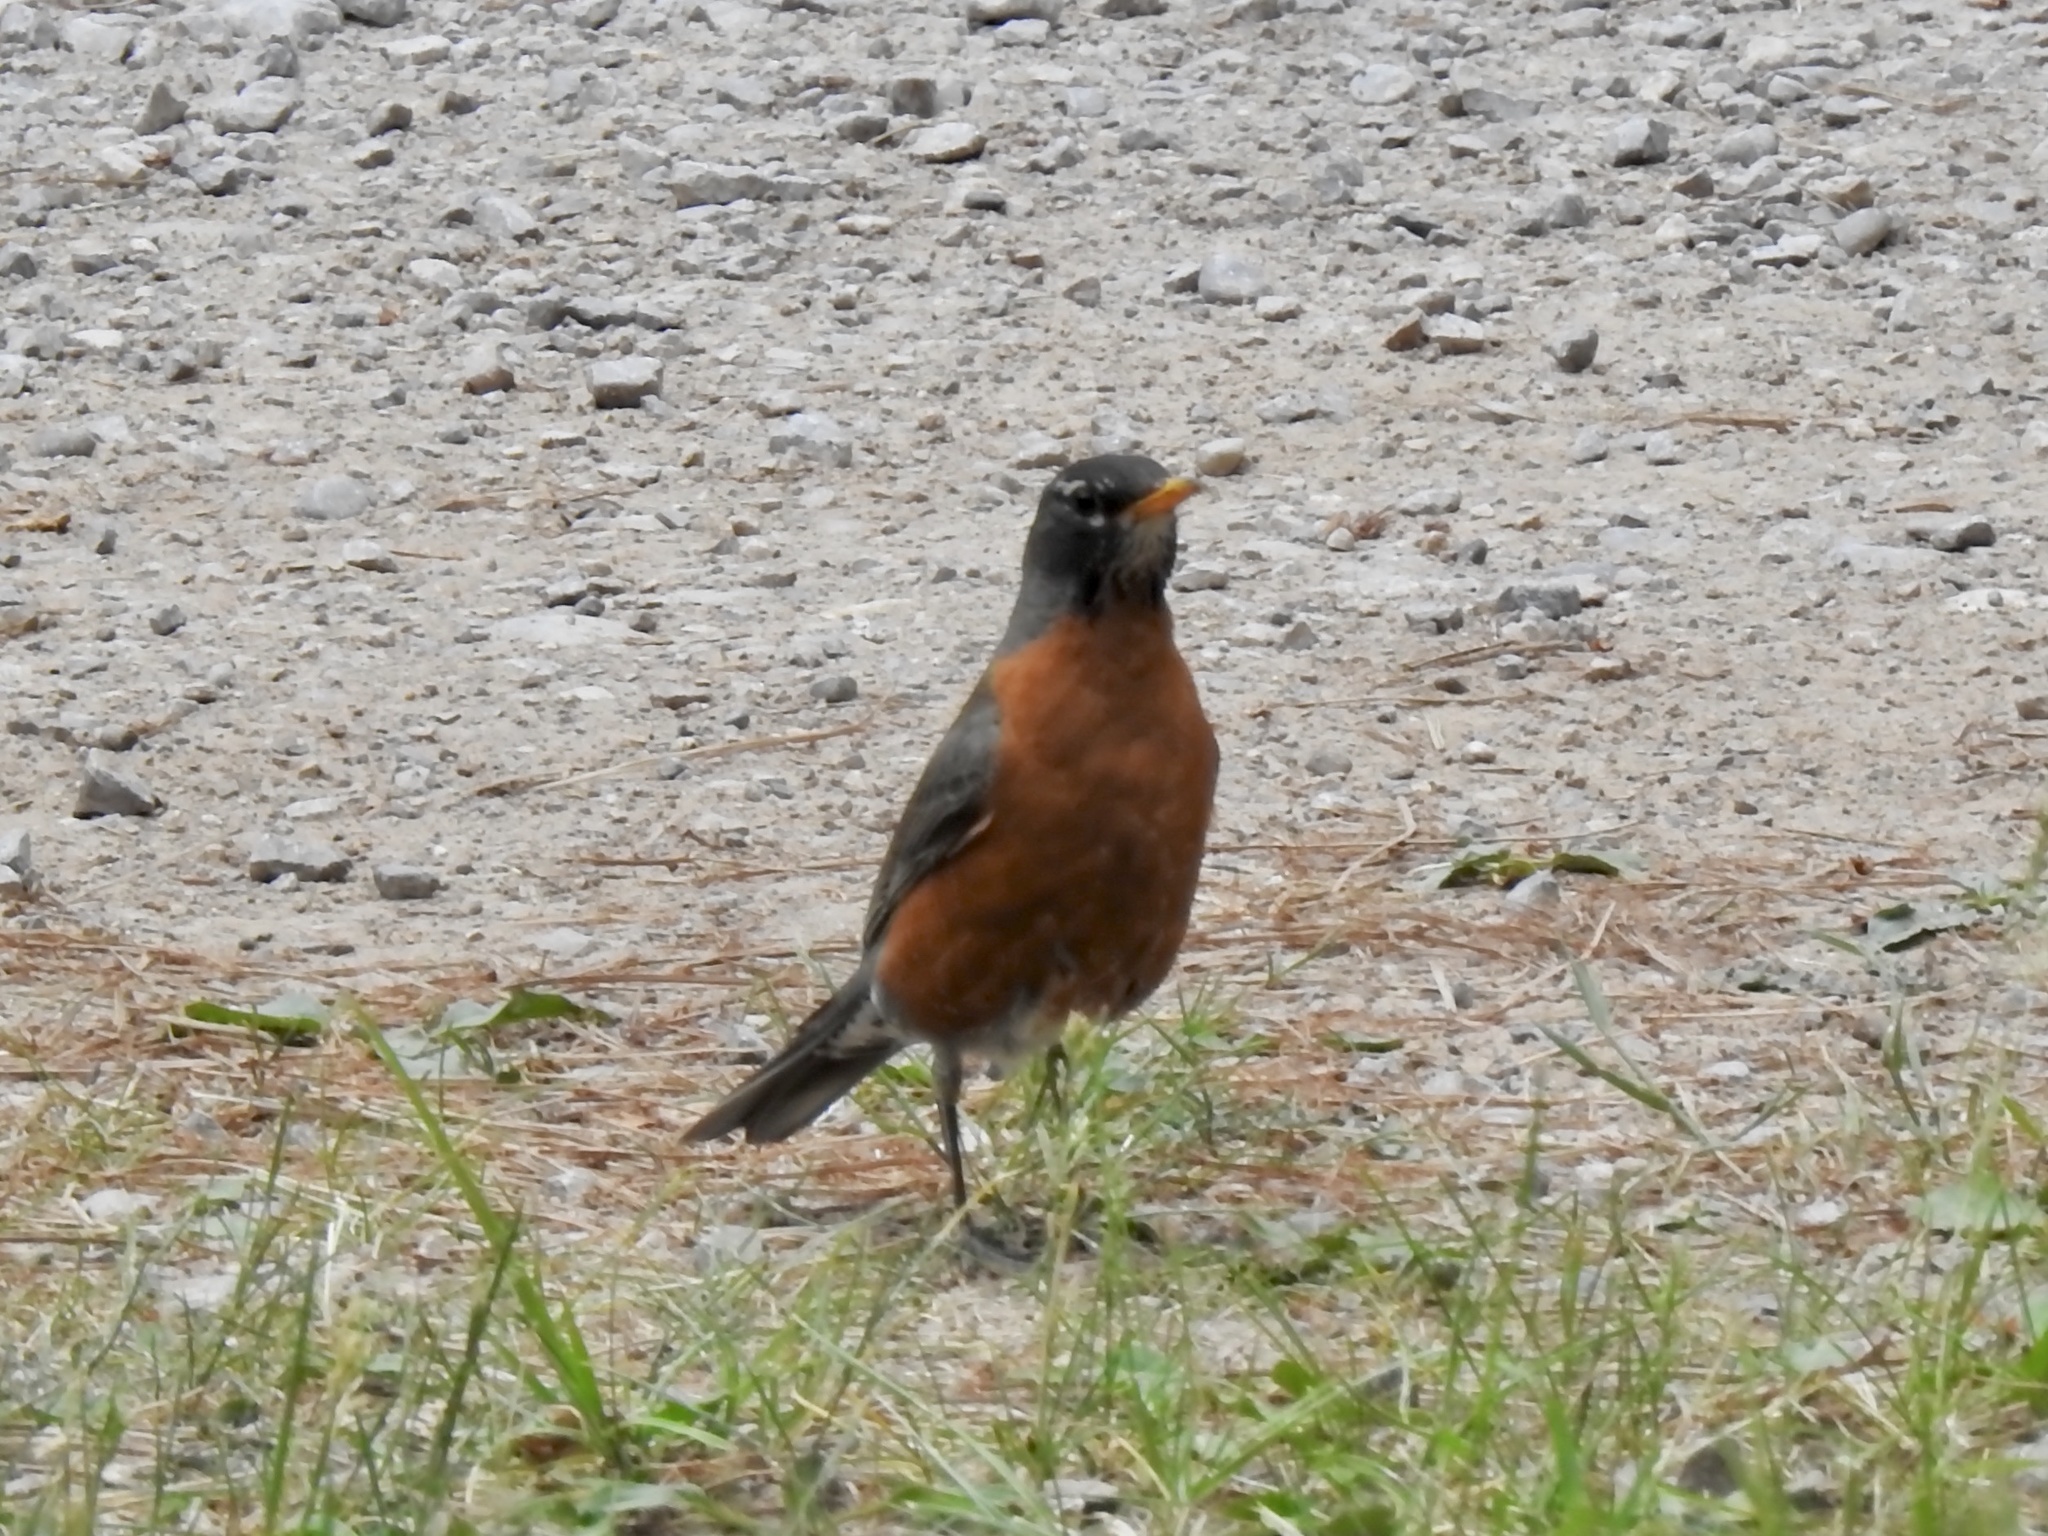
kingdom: Animalia
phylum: Chordata
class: Aves
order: Passeriformes
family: Turdidae
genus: Turdus
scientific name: Turdus migratorius
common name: American robin
